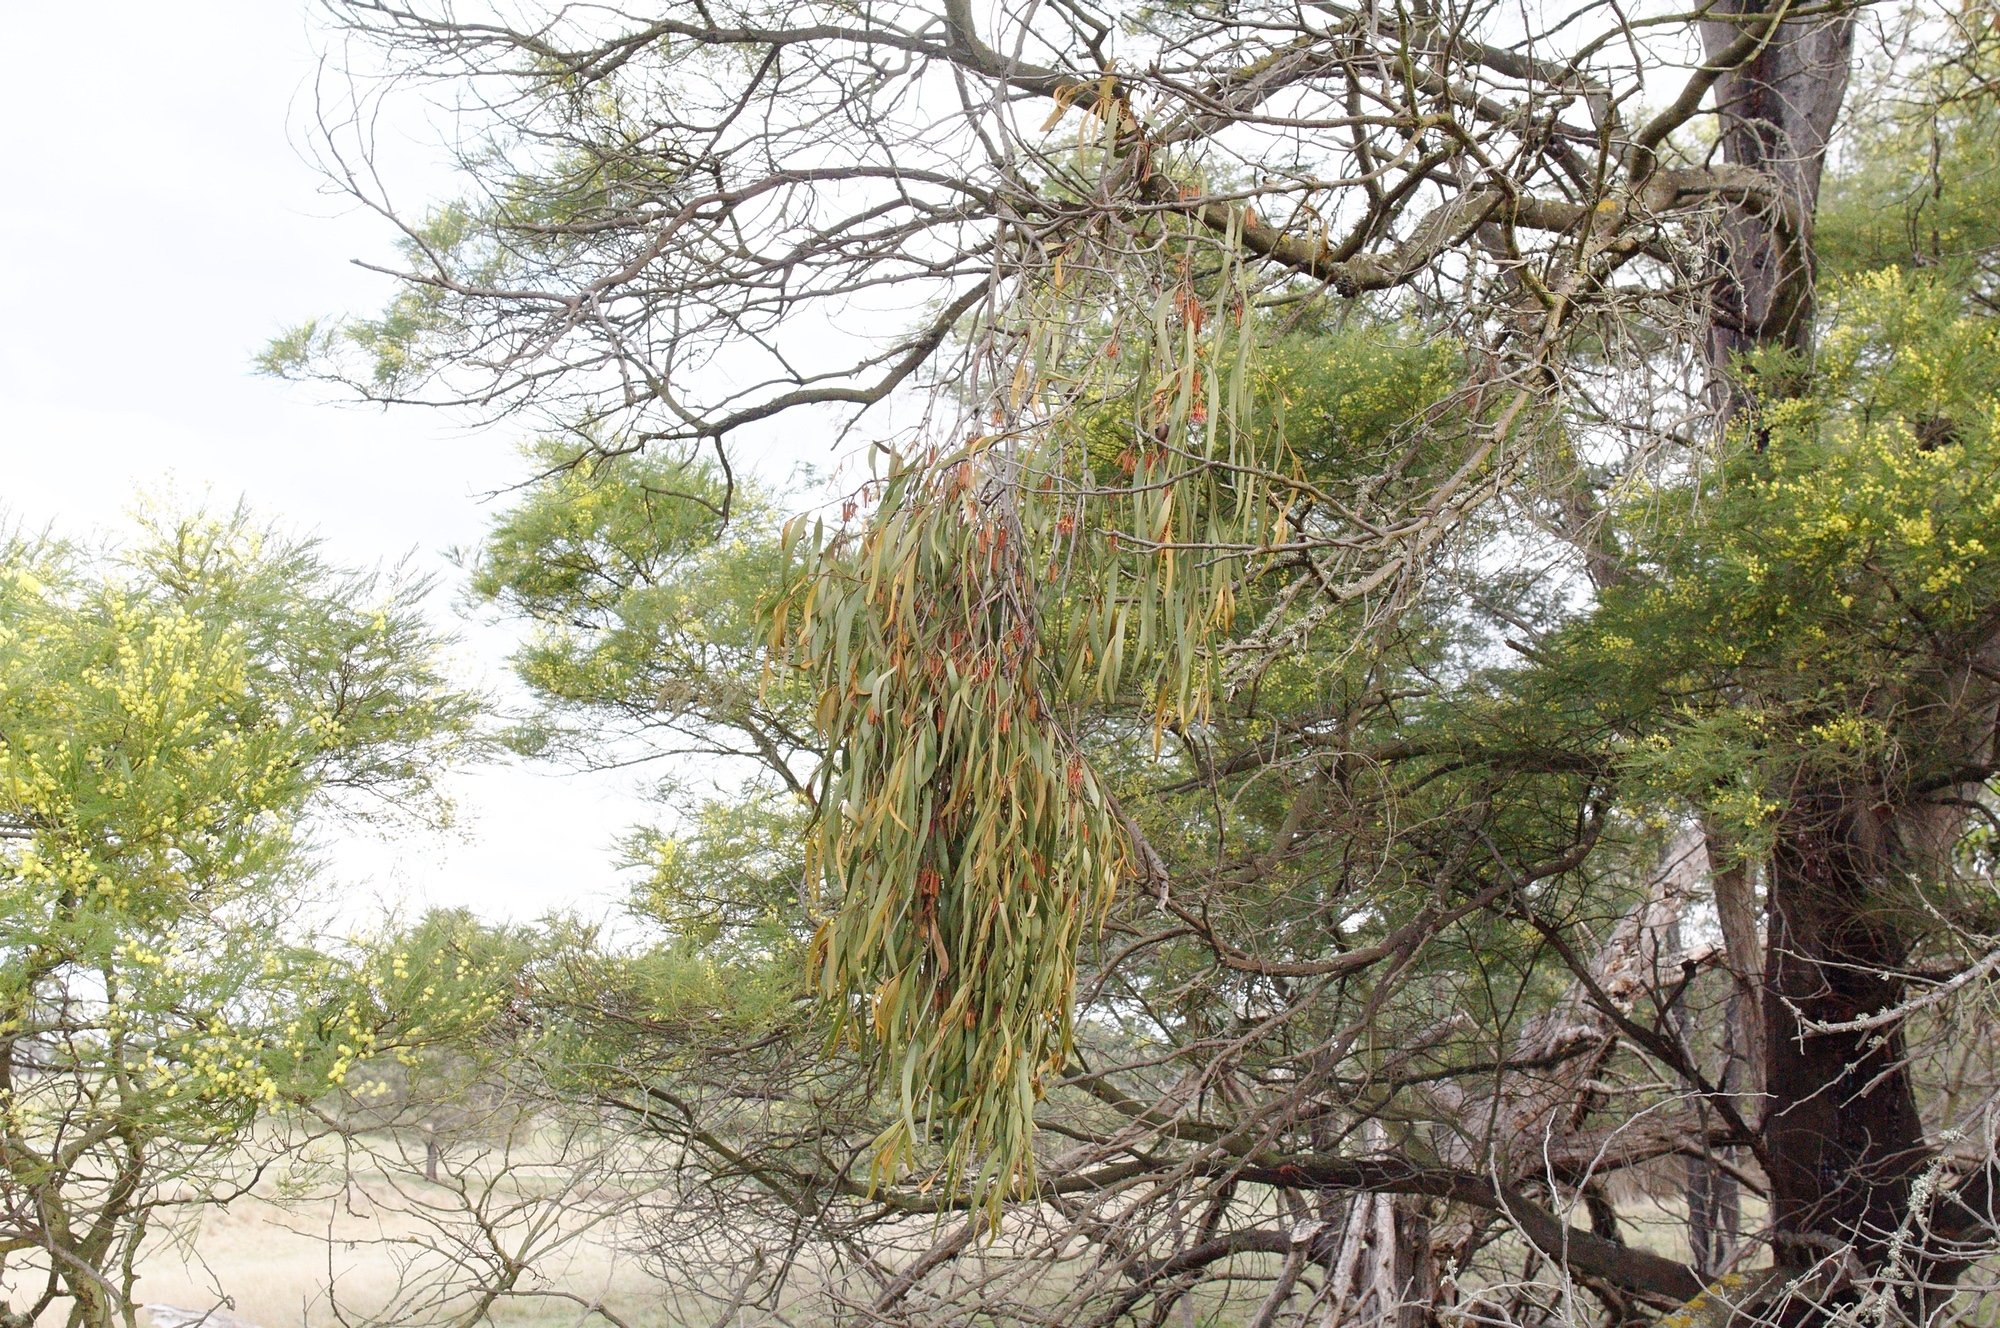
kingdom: Plantae
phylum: Tracheophyta
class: Magnoliopsida
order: Santalales
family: Loranthaceae
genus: Amyema
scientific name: Amyema pendula
